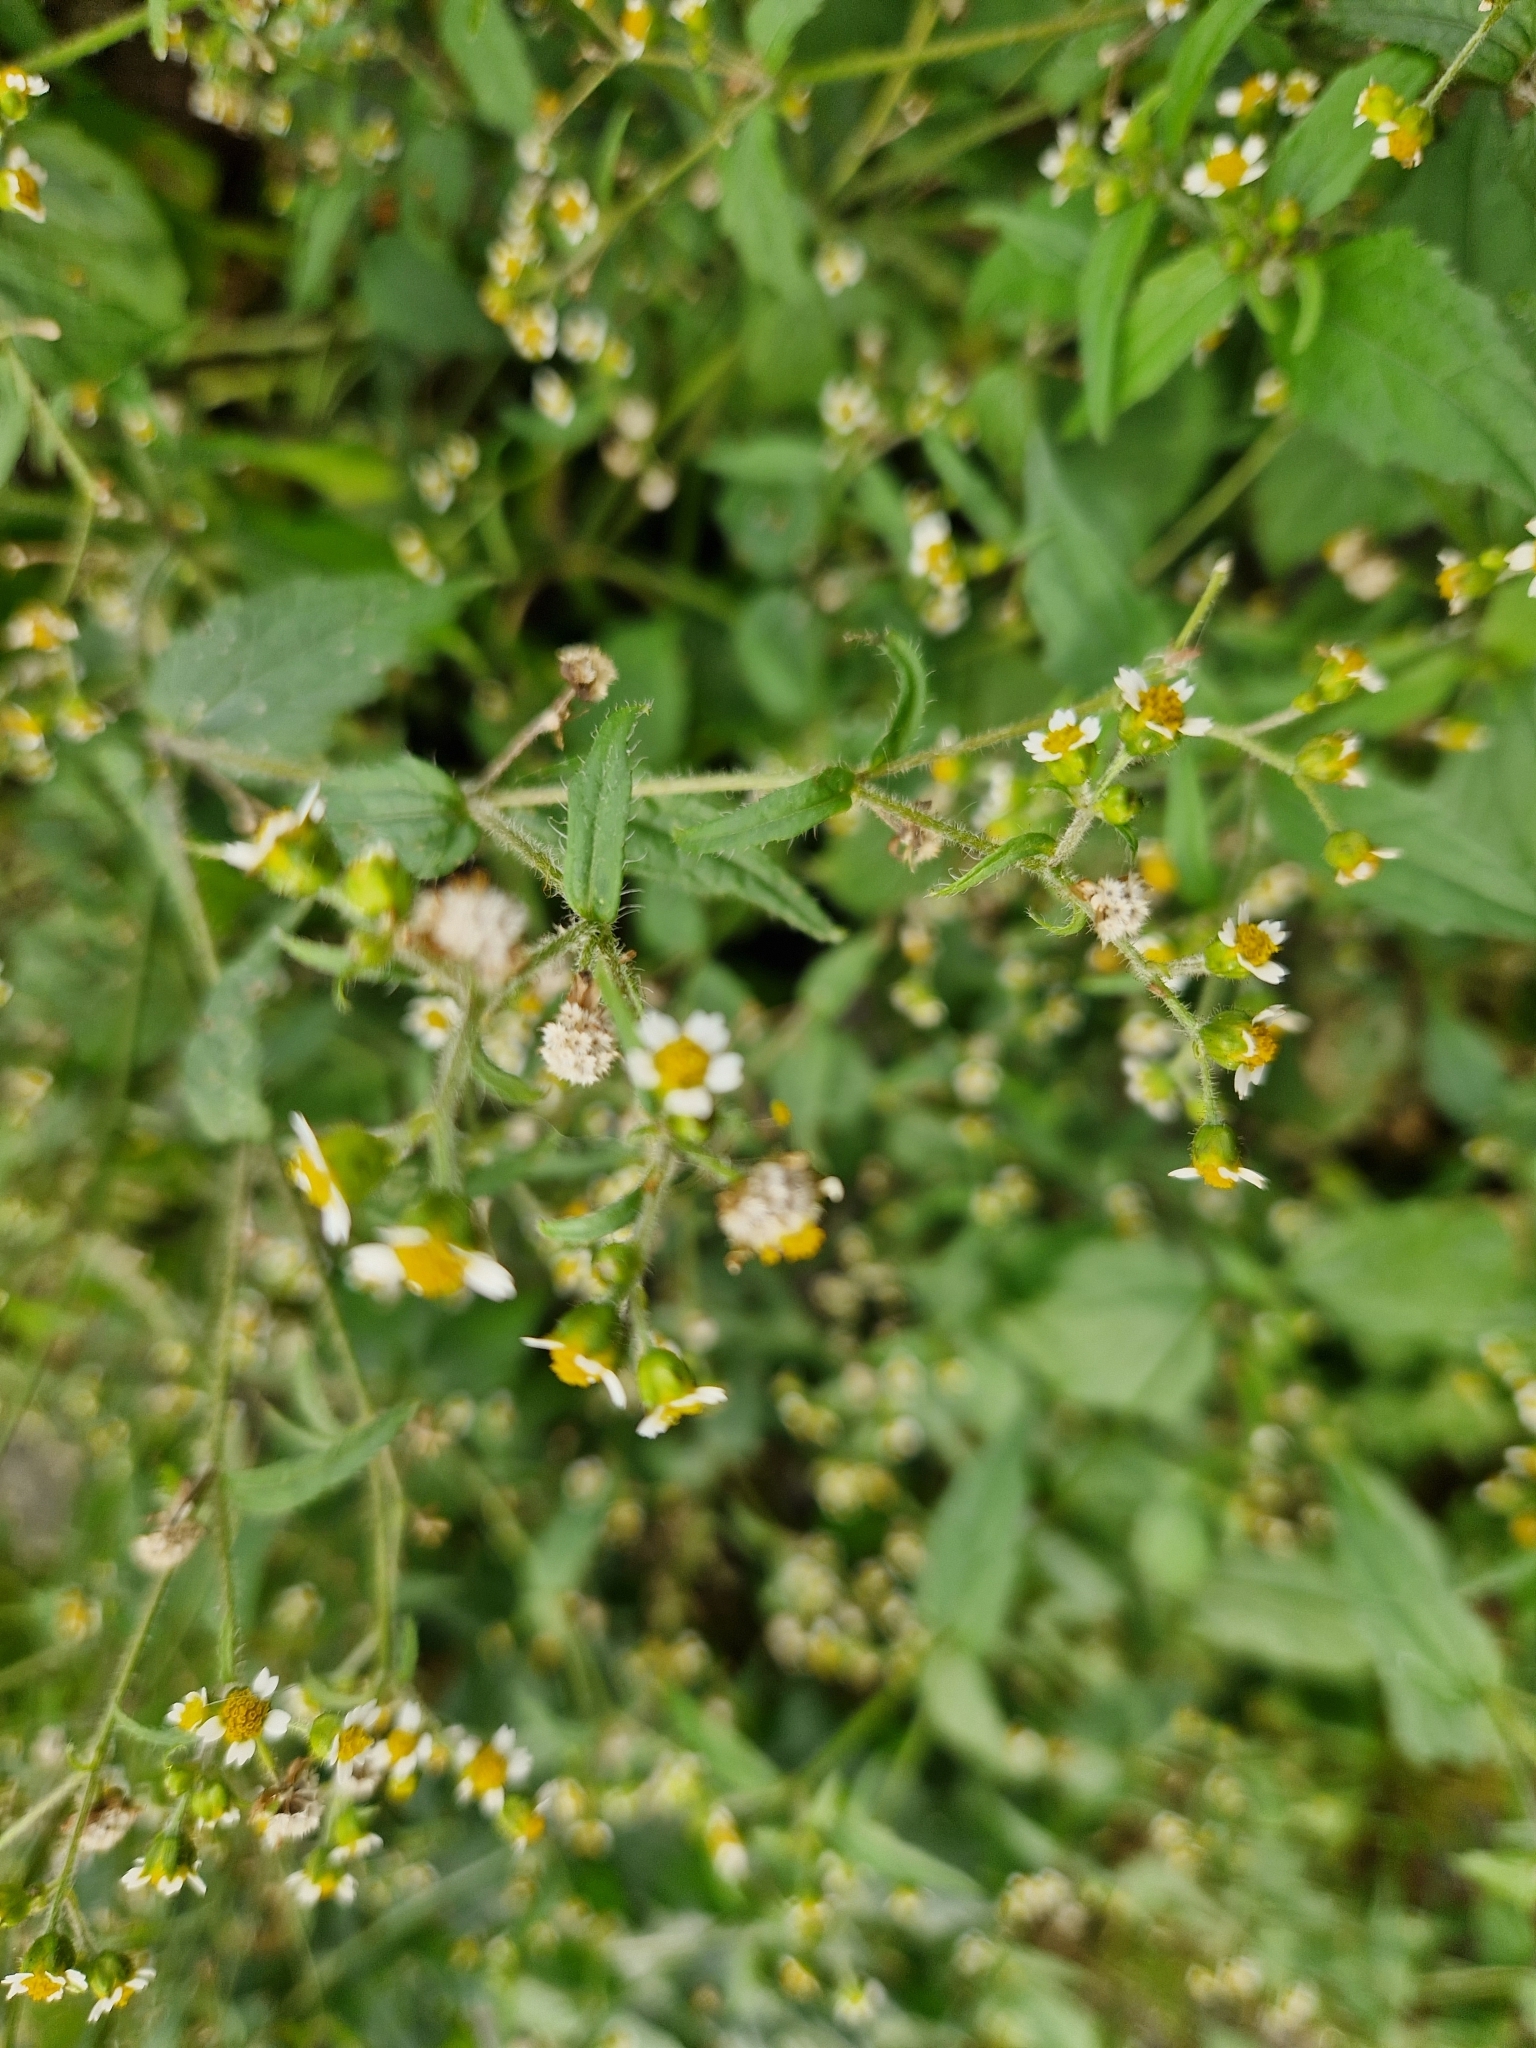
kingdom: Plantae
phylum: Tracheophyta
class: Magnoliopsida
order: Asterales
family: Asteraceae
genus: Galinsoga
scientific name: Galinsoga quadriradiata
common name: Shaggy soldier
